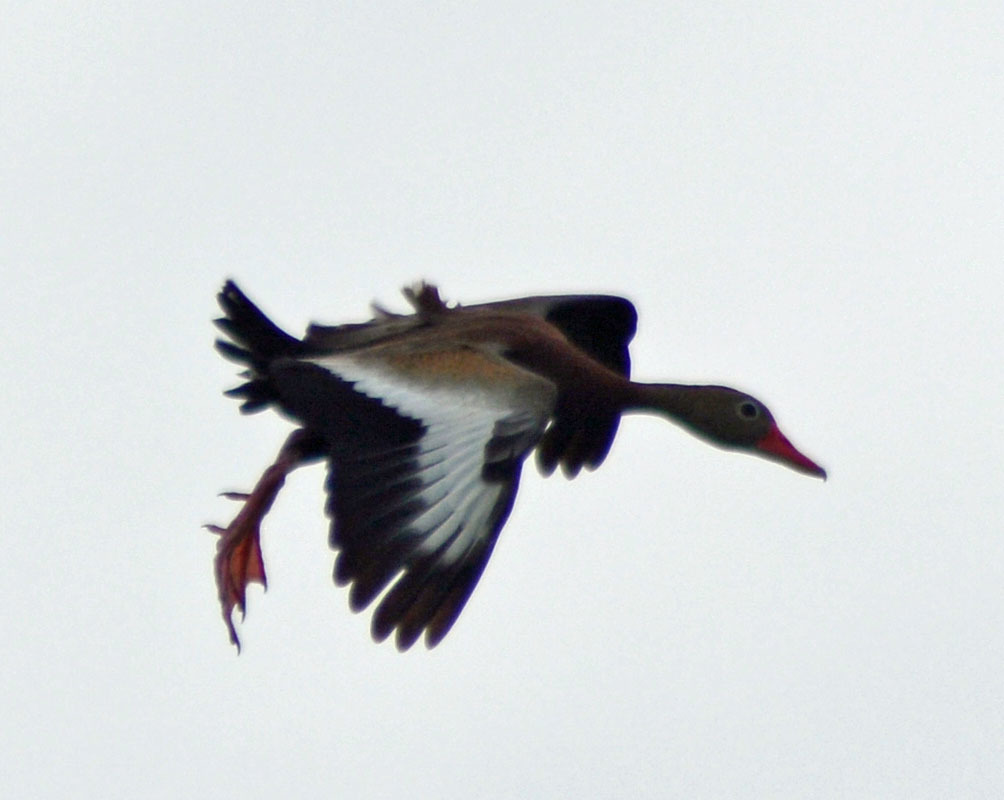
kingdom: Animalia
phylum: Chordata
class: Aves
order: Anseriformes
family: Anatidae
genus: Dendrocygna
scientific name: Dendrocygna autumnalis
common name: Black-bellied whistling duck
